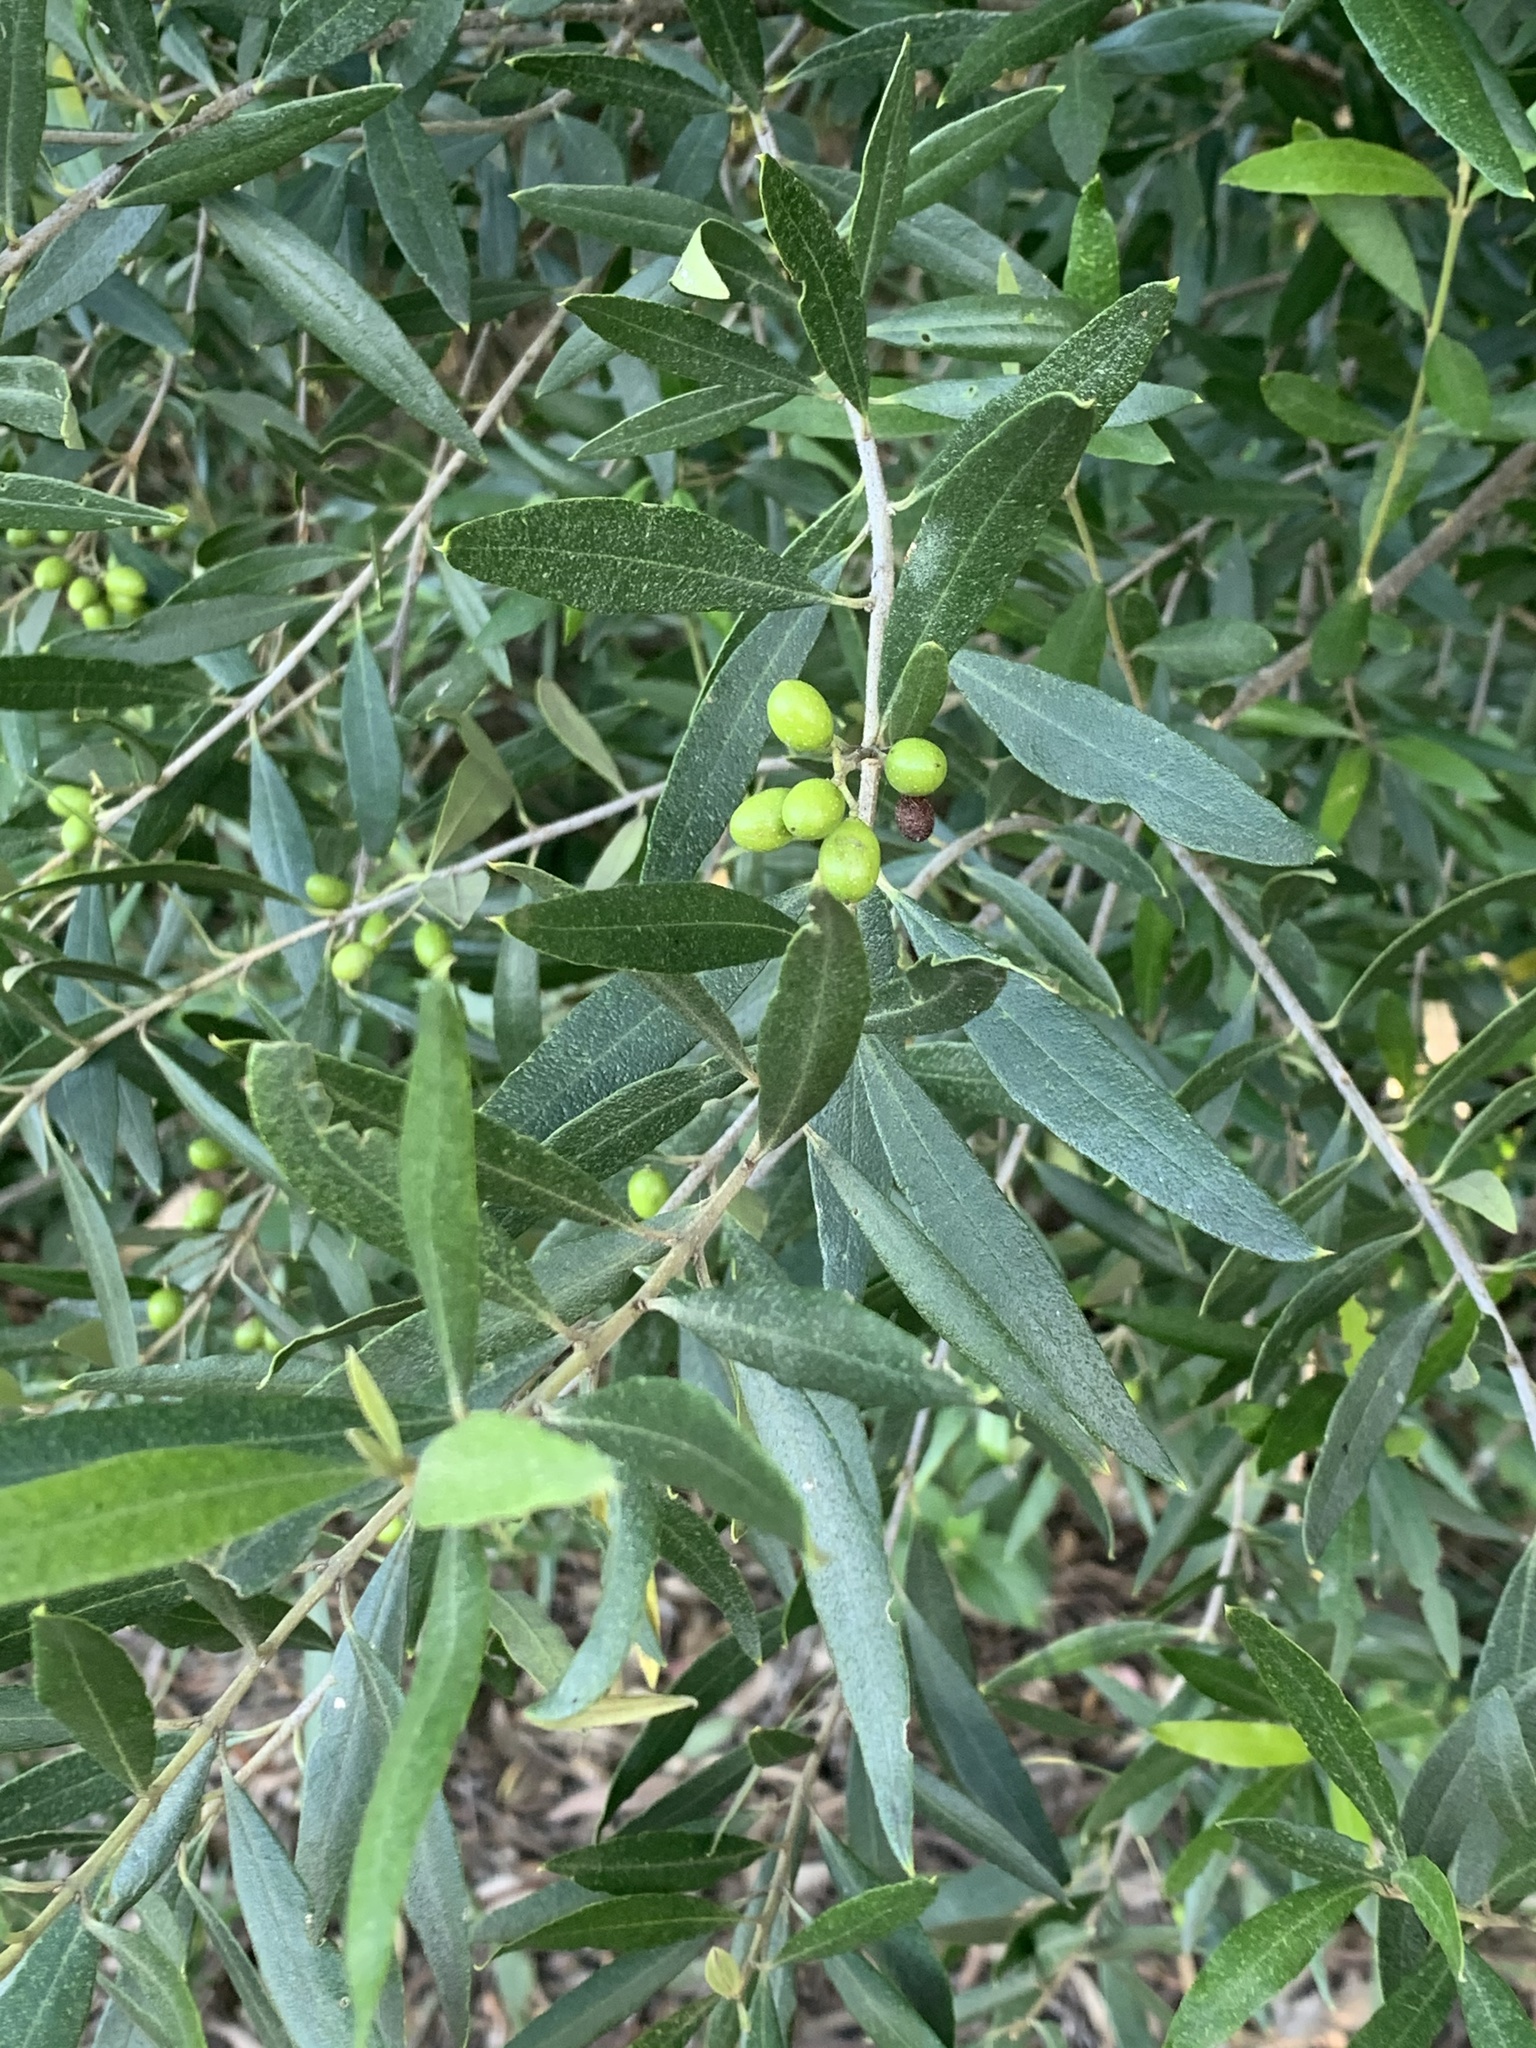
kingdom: Plantae
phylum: Tracheophyta
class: Magnoliopsida
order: Lamiales
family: Oleaceae
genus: Olea
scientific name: Olea europaea
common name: Olive
